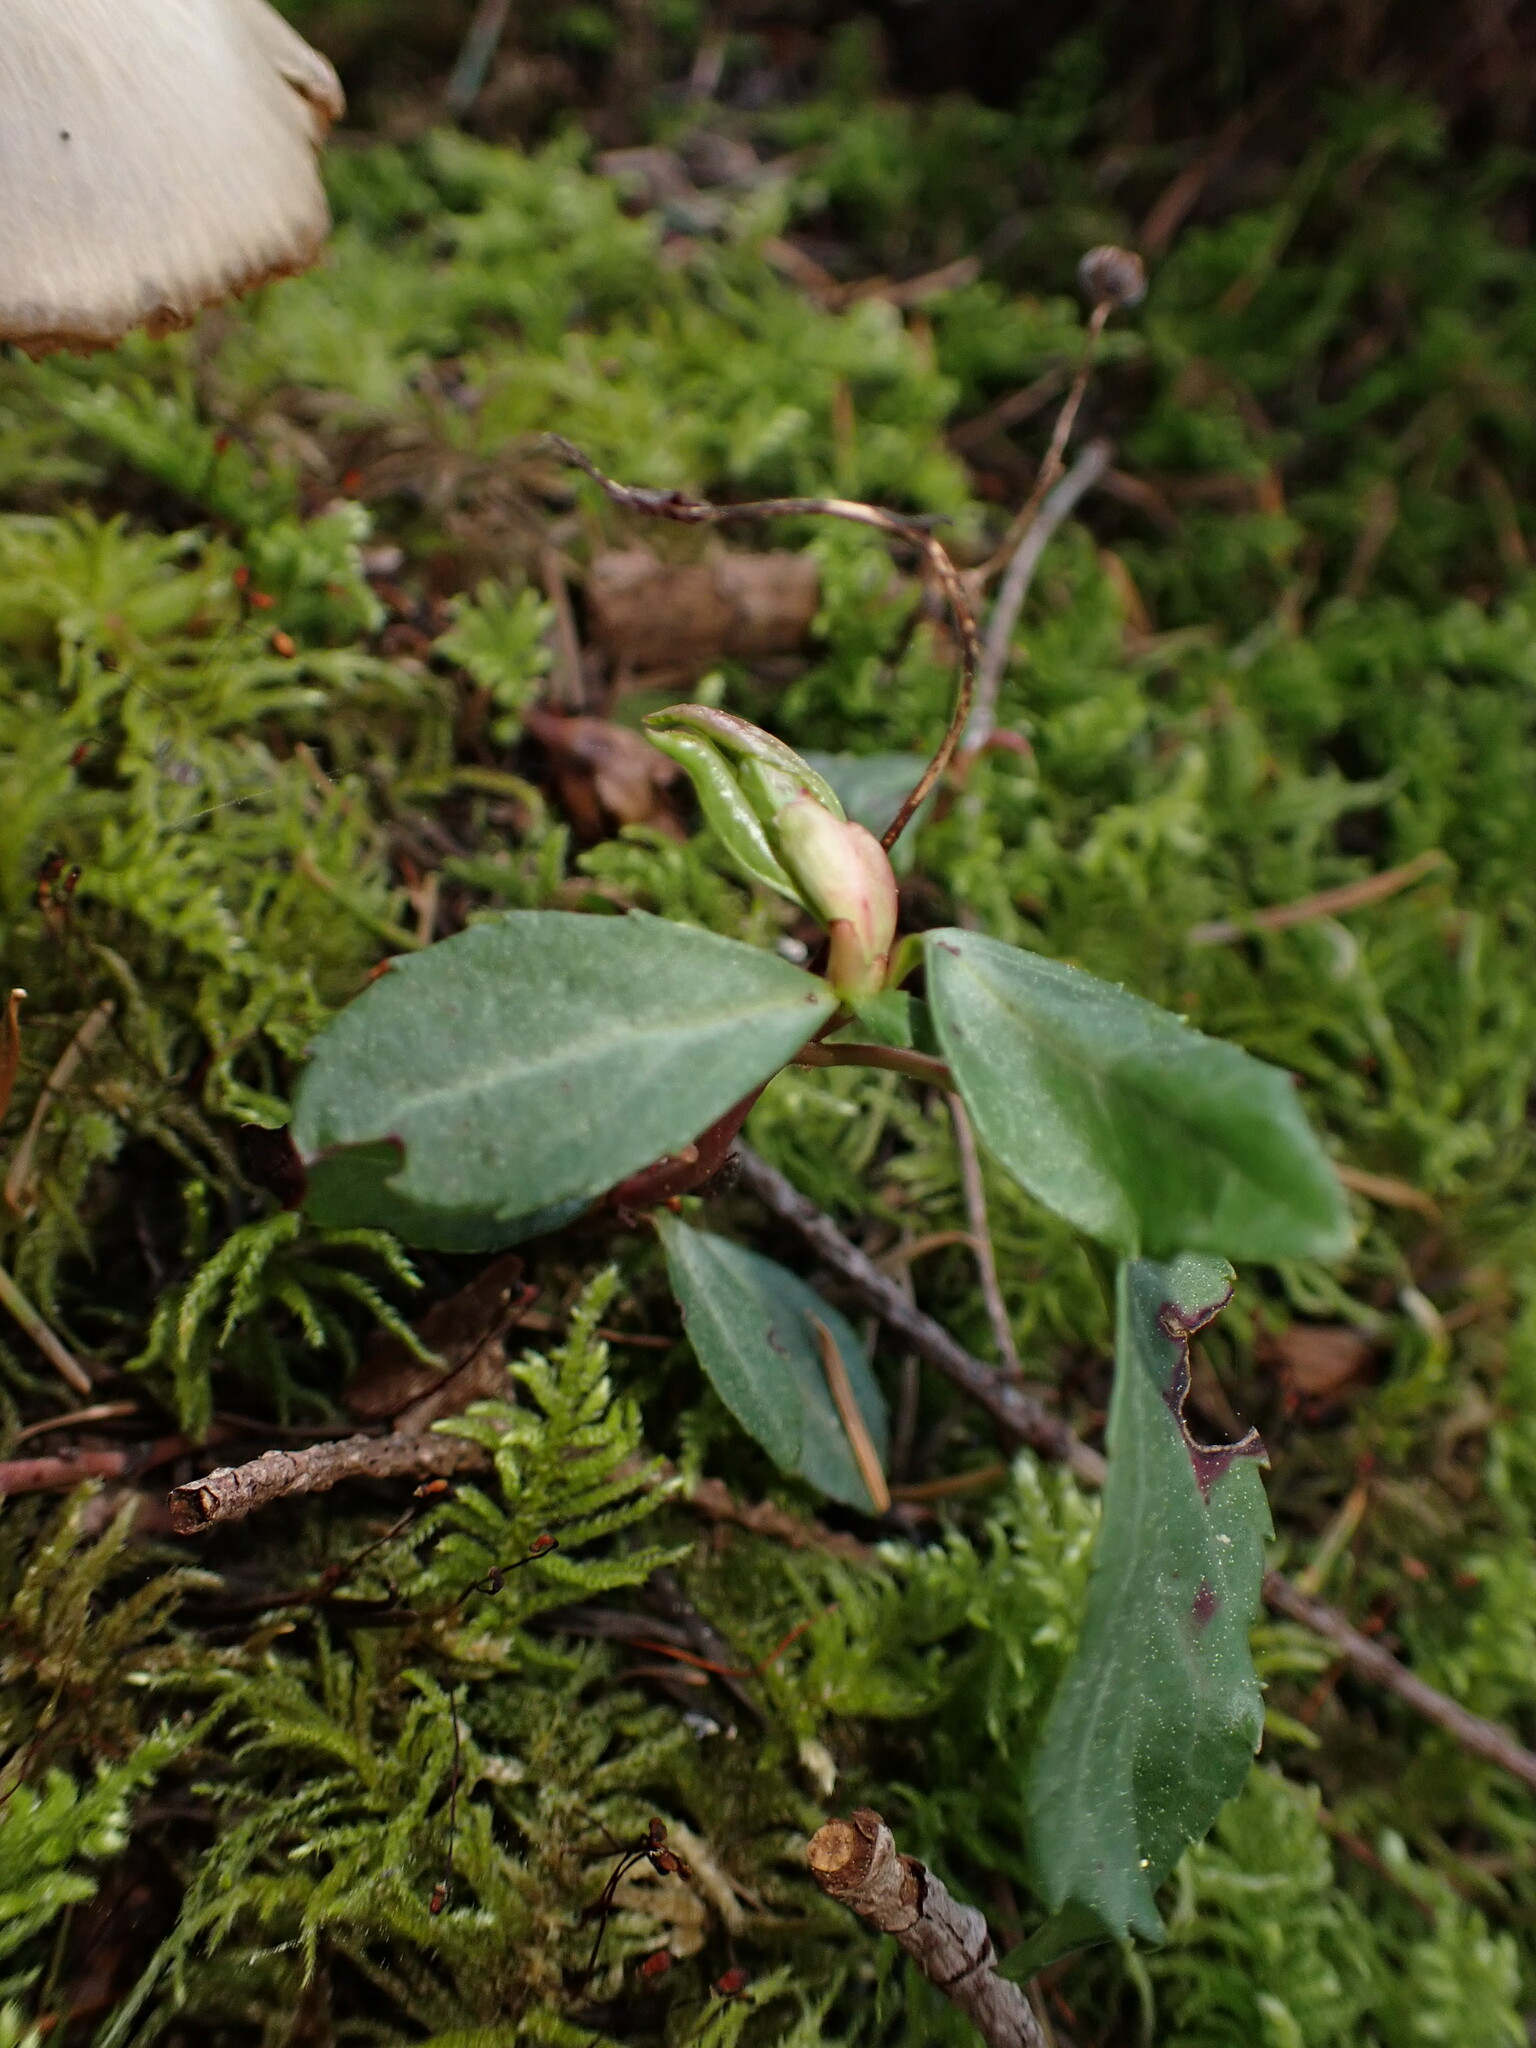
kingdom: Plantae
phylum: Tracheophyta
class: Magnoliopsida
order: Ericales
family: Ericaceae
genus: Chimaphila
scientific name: Chimaphila menziesii
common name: Menzies' pipsissewa
